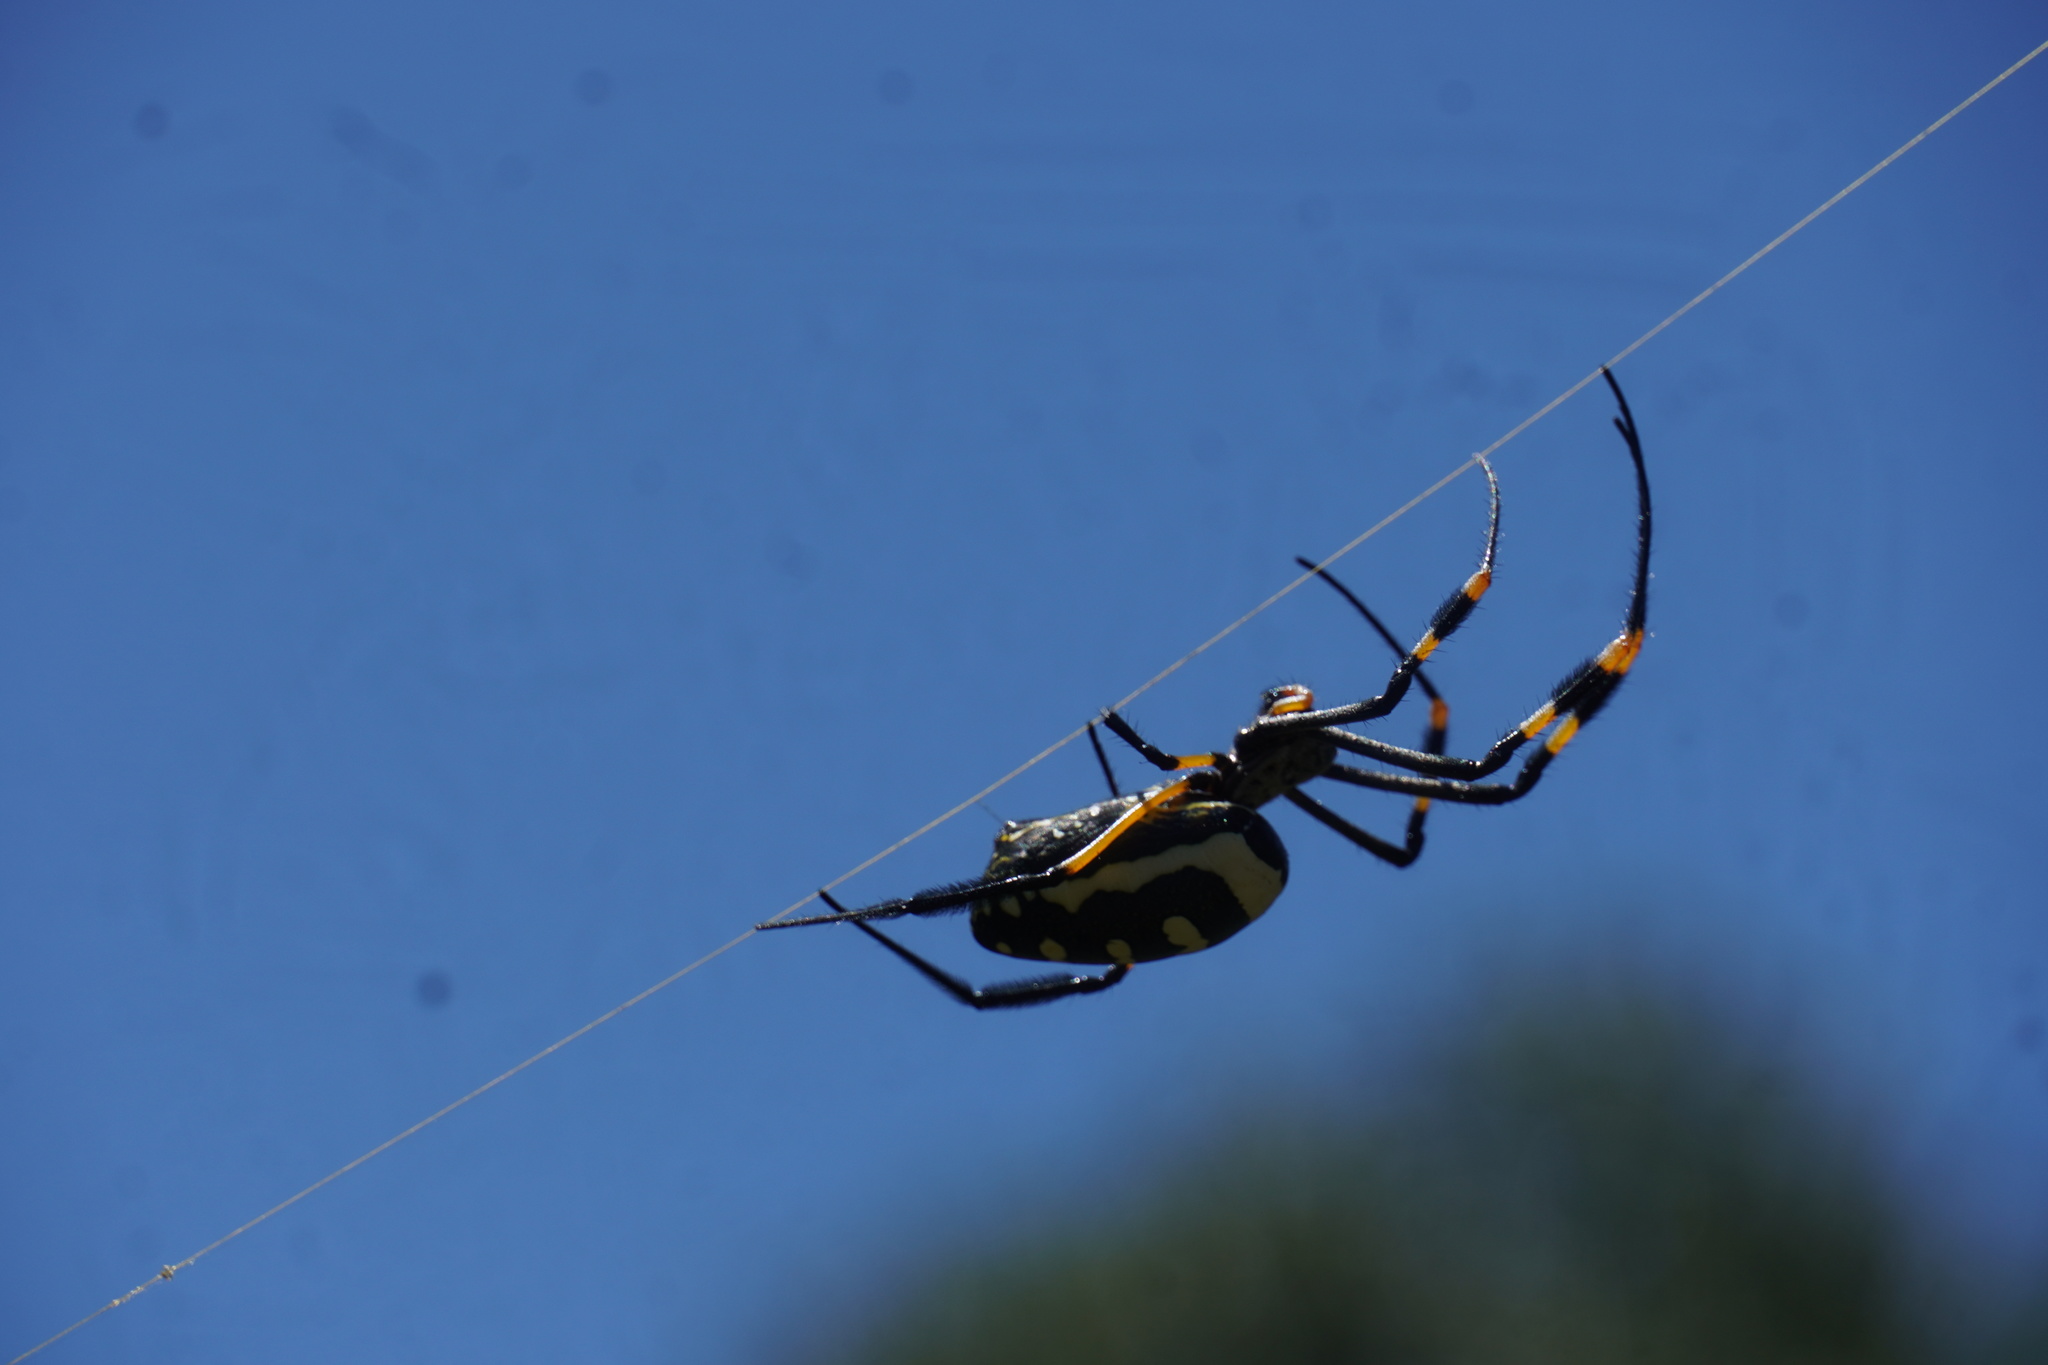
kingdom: Animalia
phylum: Arthropoda
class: Arachnida
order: Araneae
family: Araneidae
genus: Trichonephila
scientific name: Trichonephila senegalensis
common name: Banded golden orb weaver
